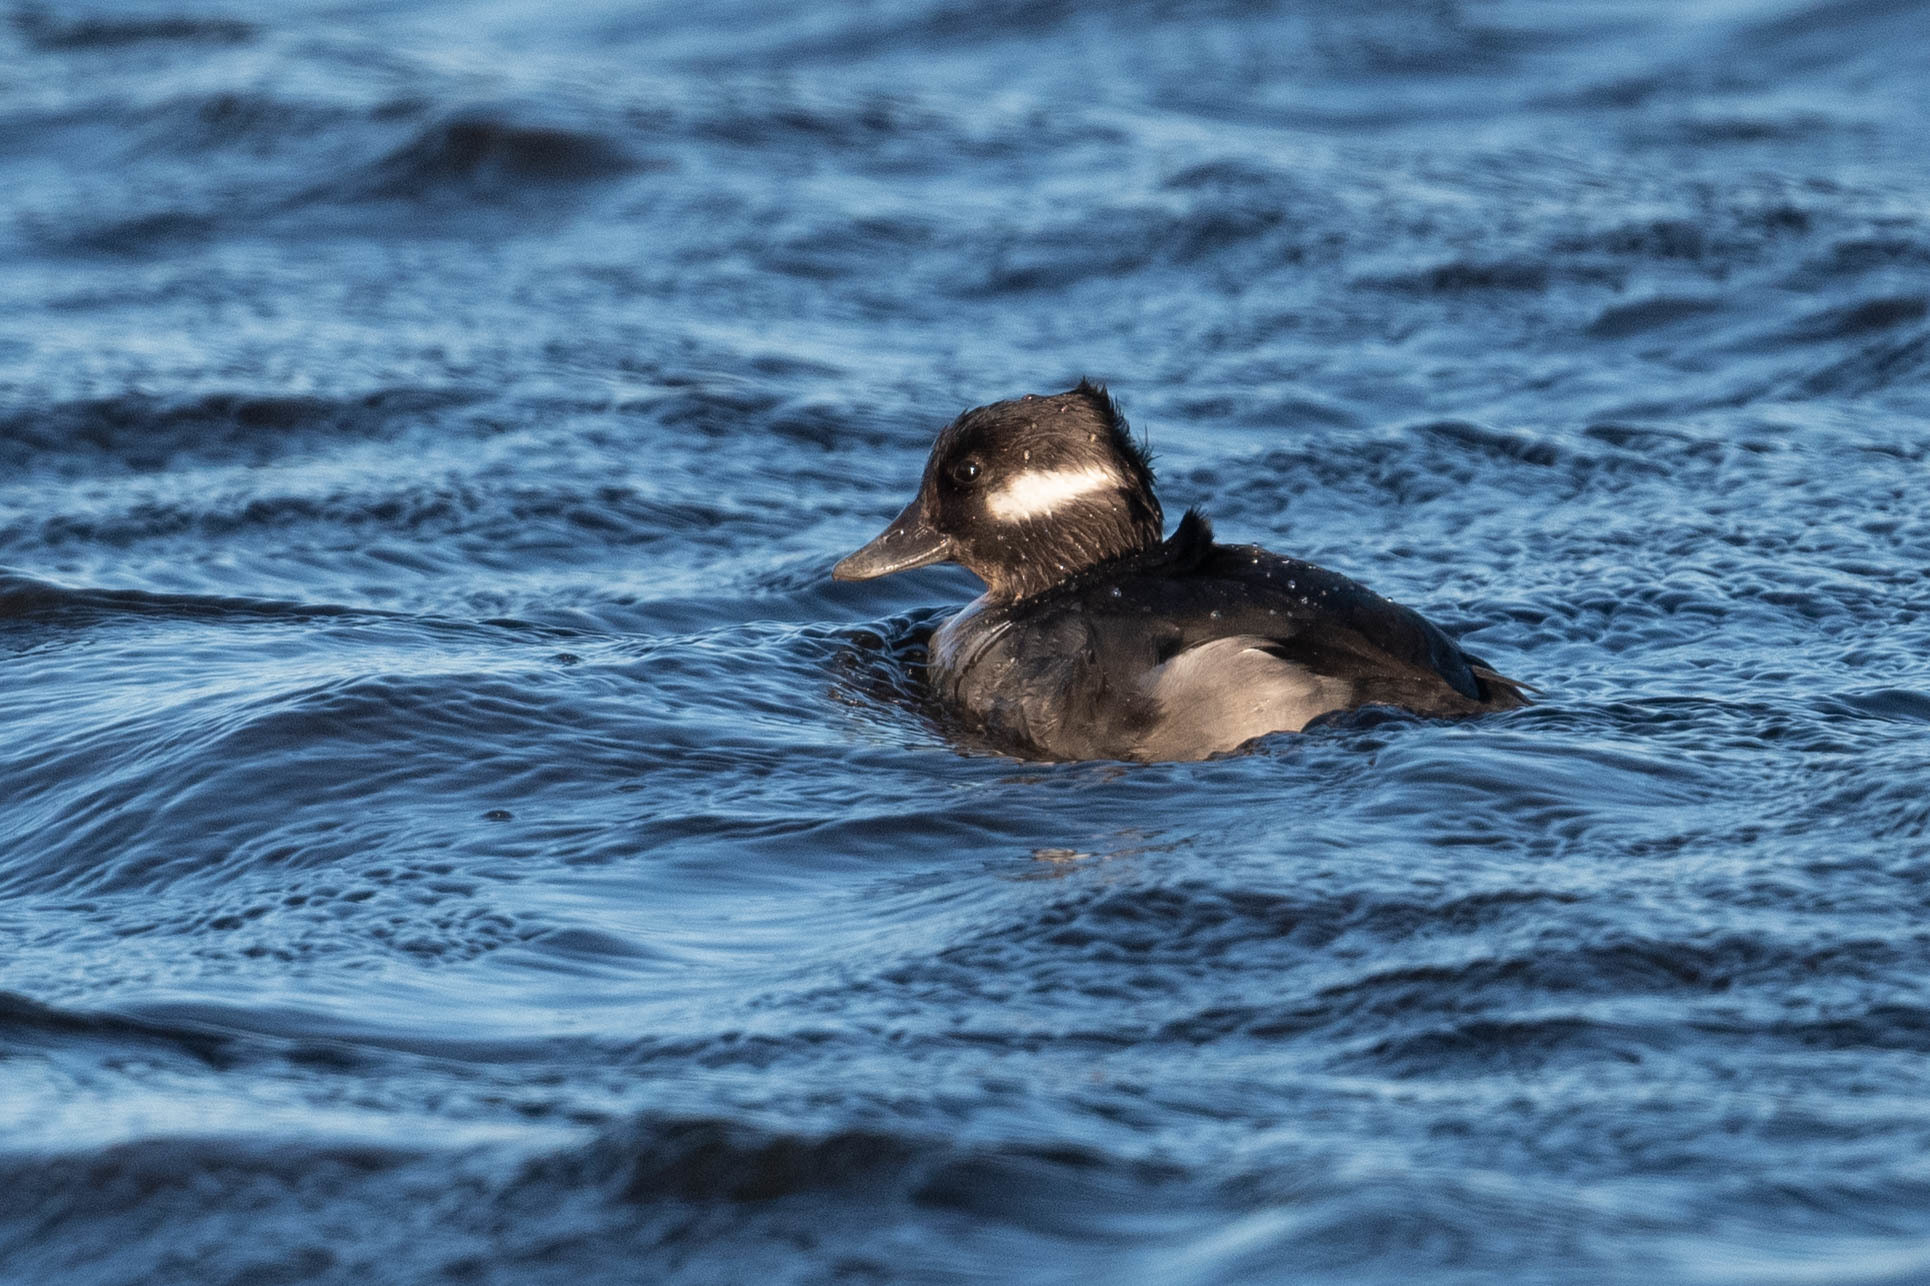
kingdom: Animalia
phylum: Chordata
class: Aves
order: Anseriformes
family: Anatidae
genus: Bucephala
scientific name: Bucephala albeola
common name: Bufflehead
